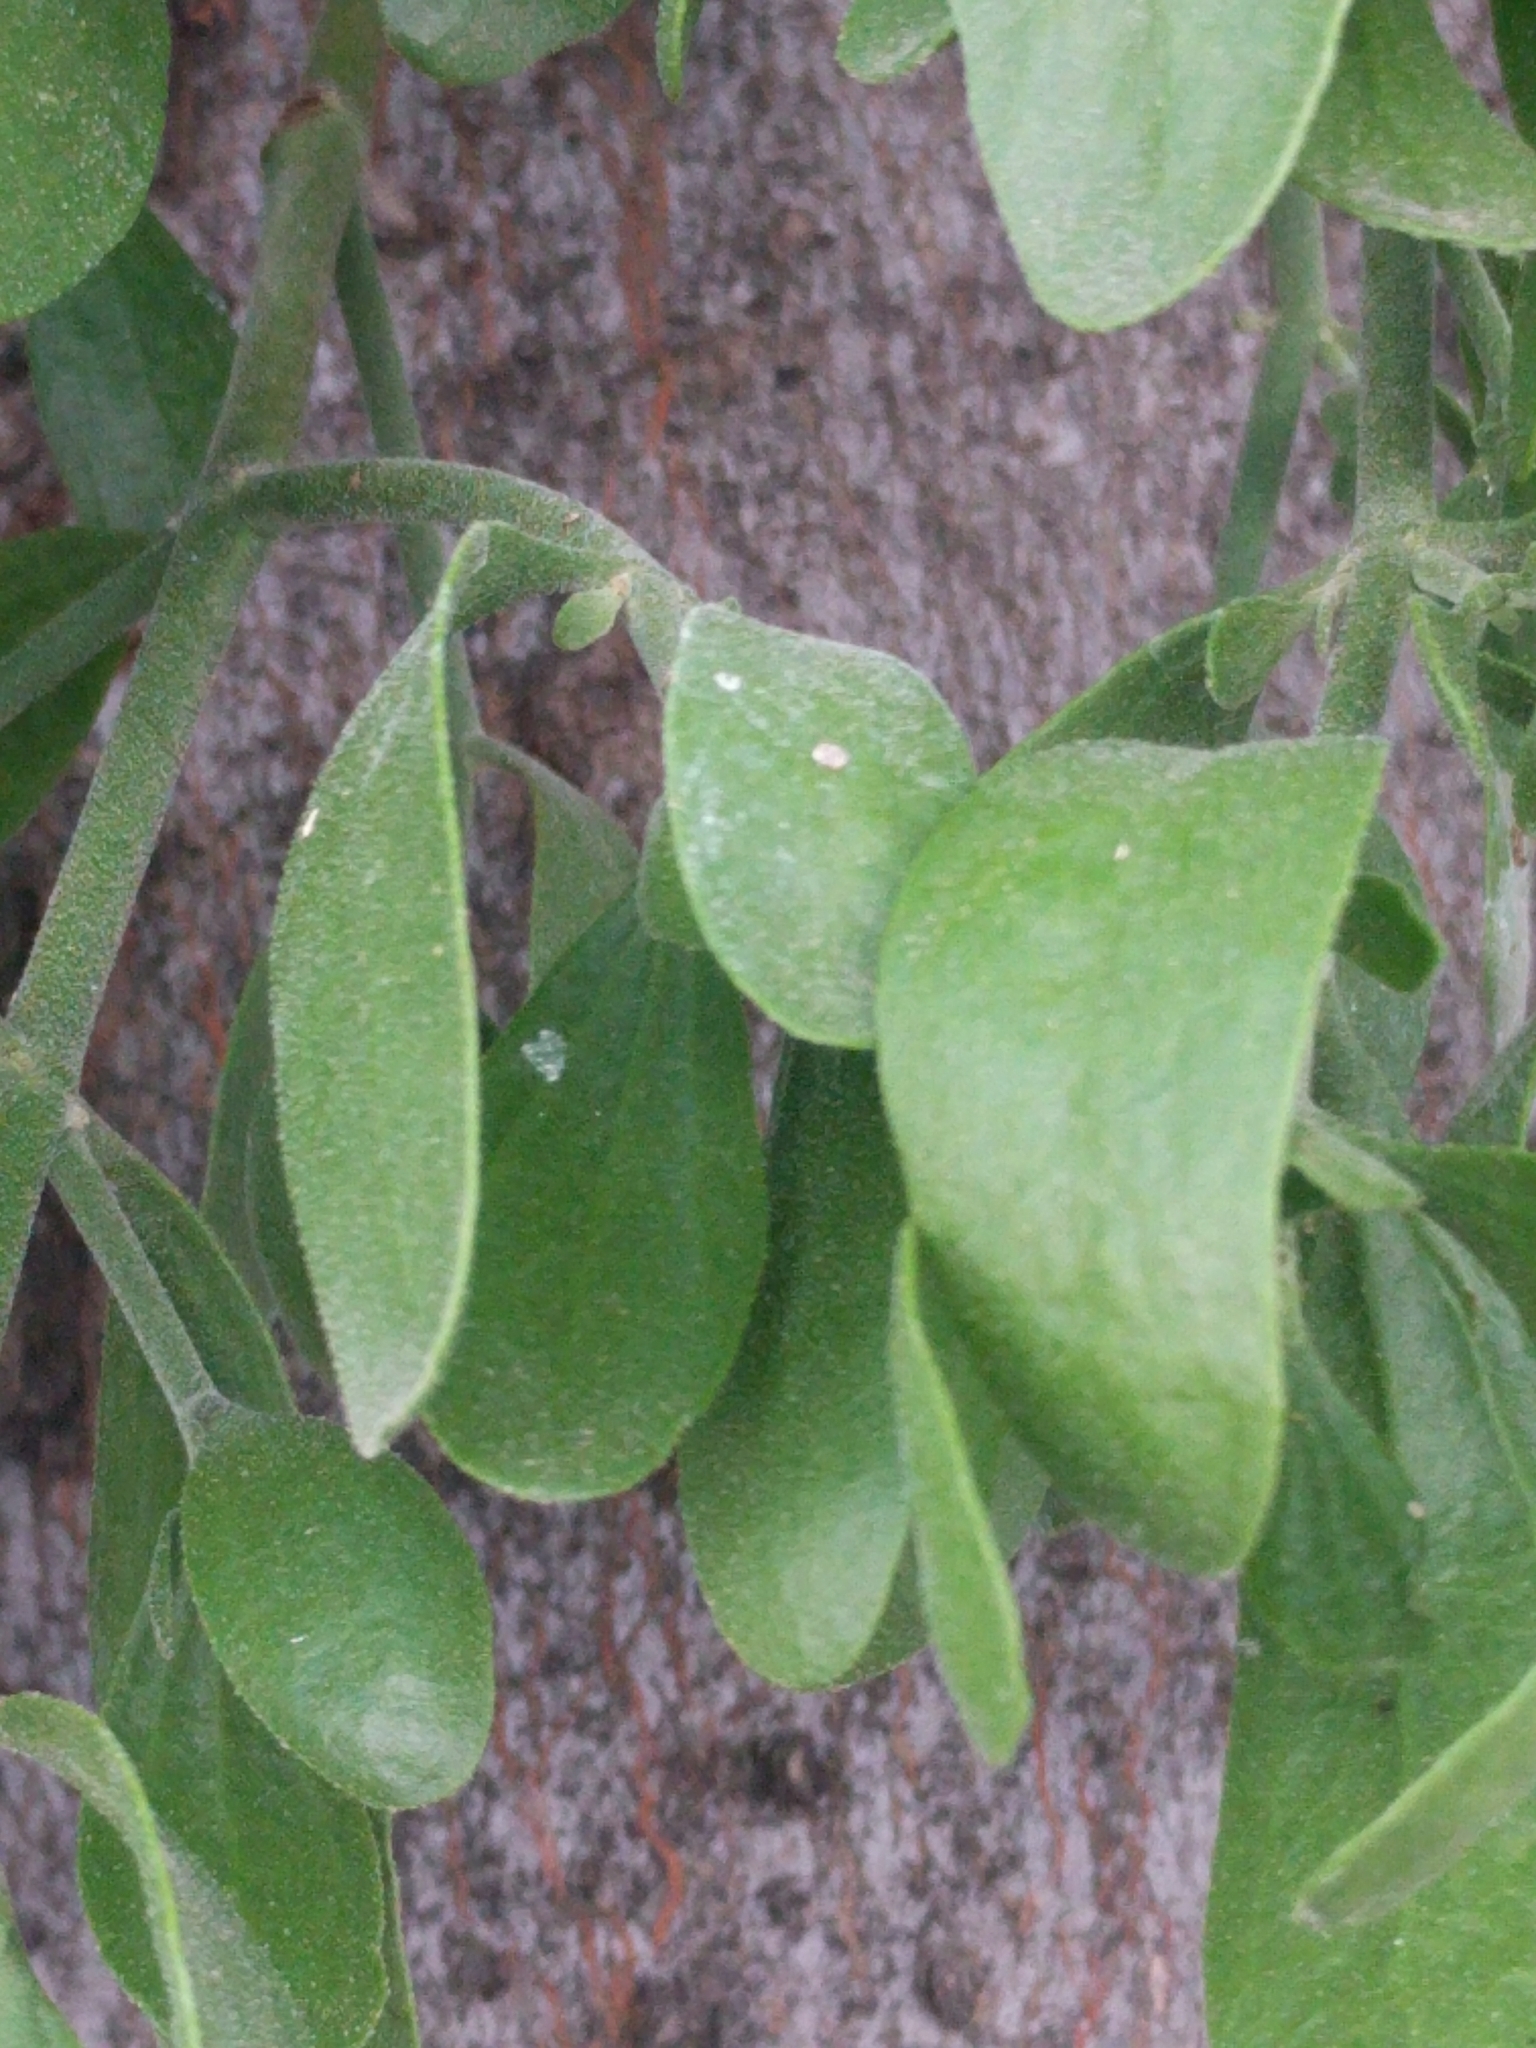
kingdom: Plantae
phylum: Tracheophyta
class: Magnoliopsida
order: Santalales
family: Viscaceae
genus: Phoradendron
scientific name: Phoradendron leucarpum
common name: Pacific mistletoe
